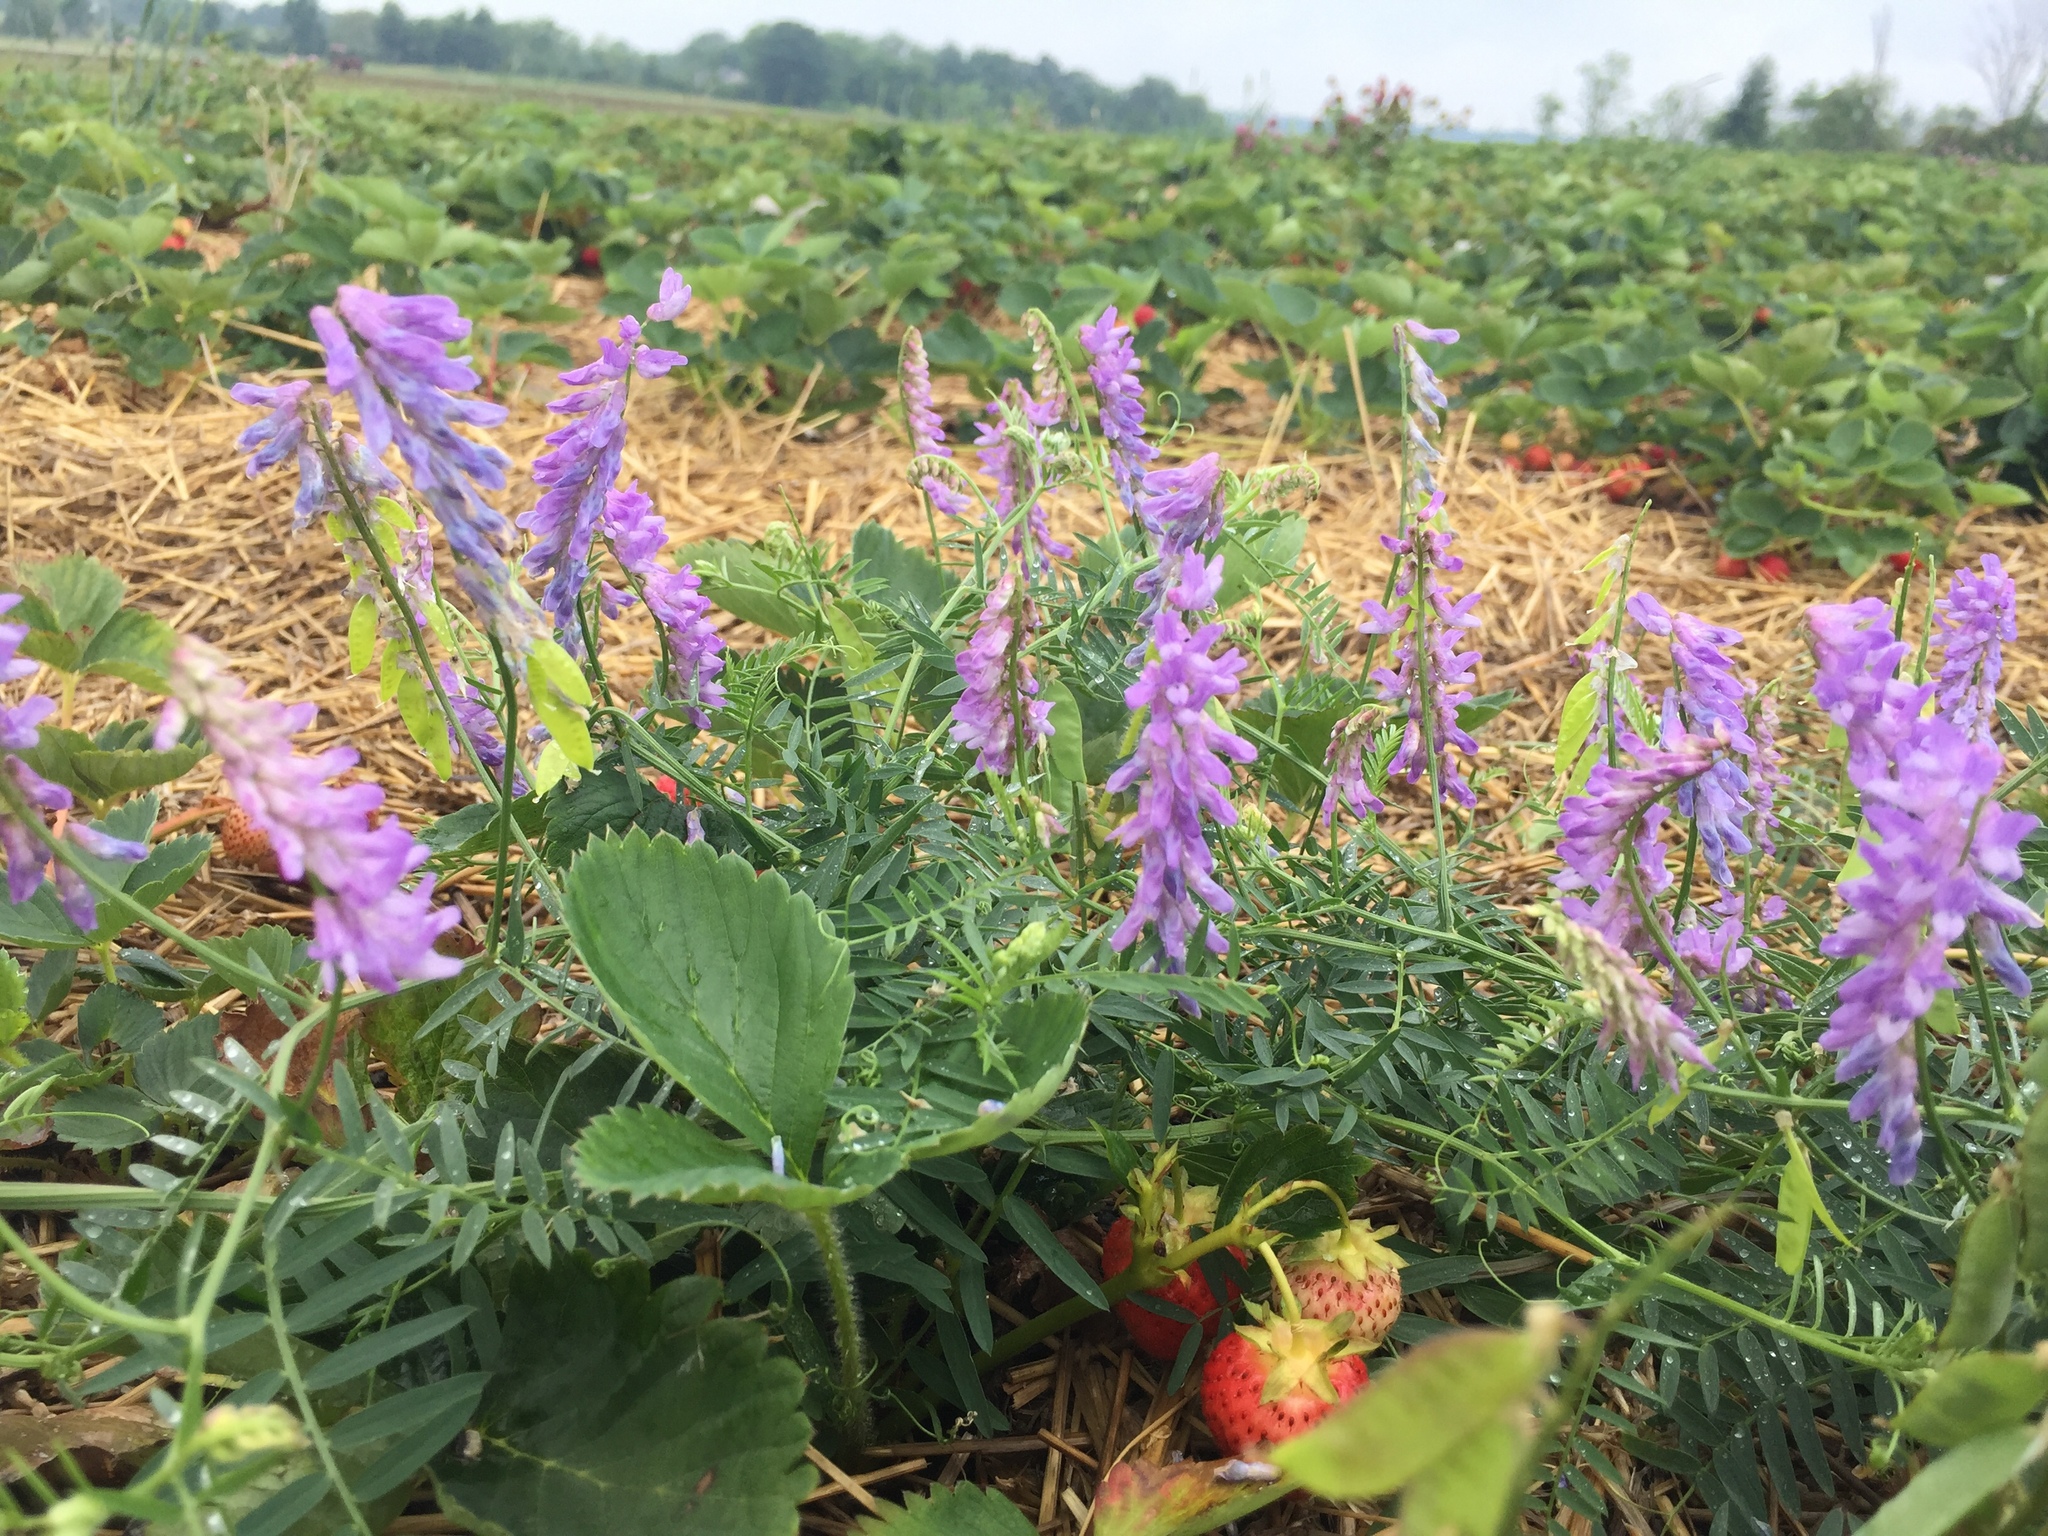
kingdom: Plantae
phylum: Tracheophyta
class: Magnoliopsida
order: Fabales
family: Fabaceae
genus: Vicia
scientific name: Vicia cracca
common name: Bird vetch
